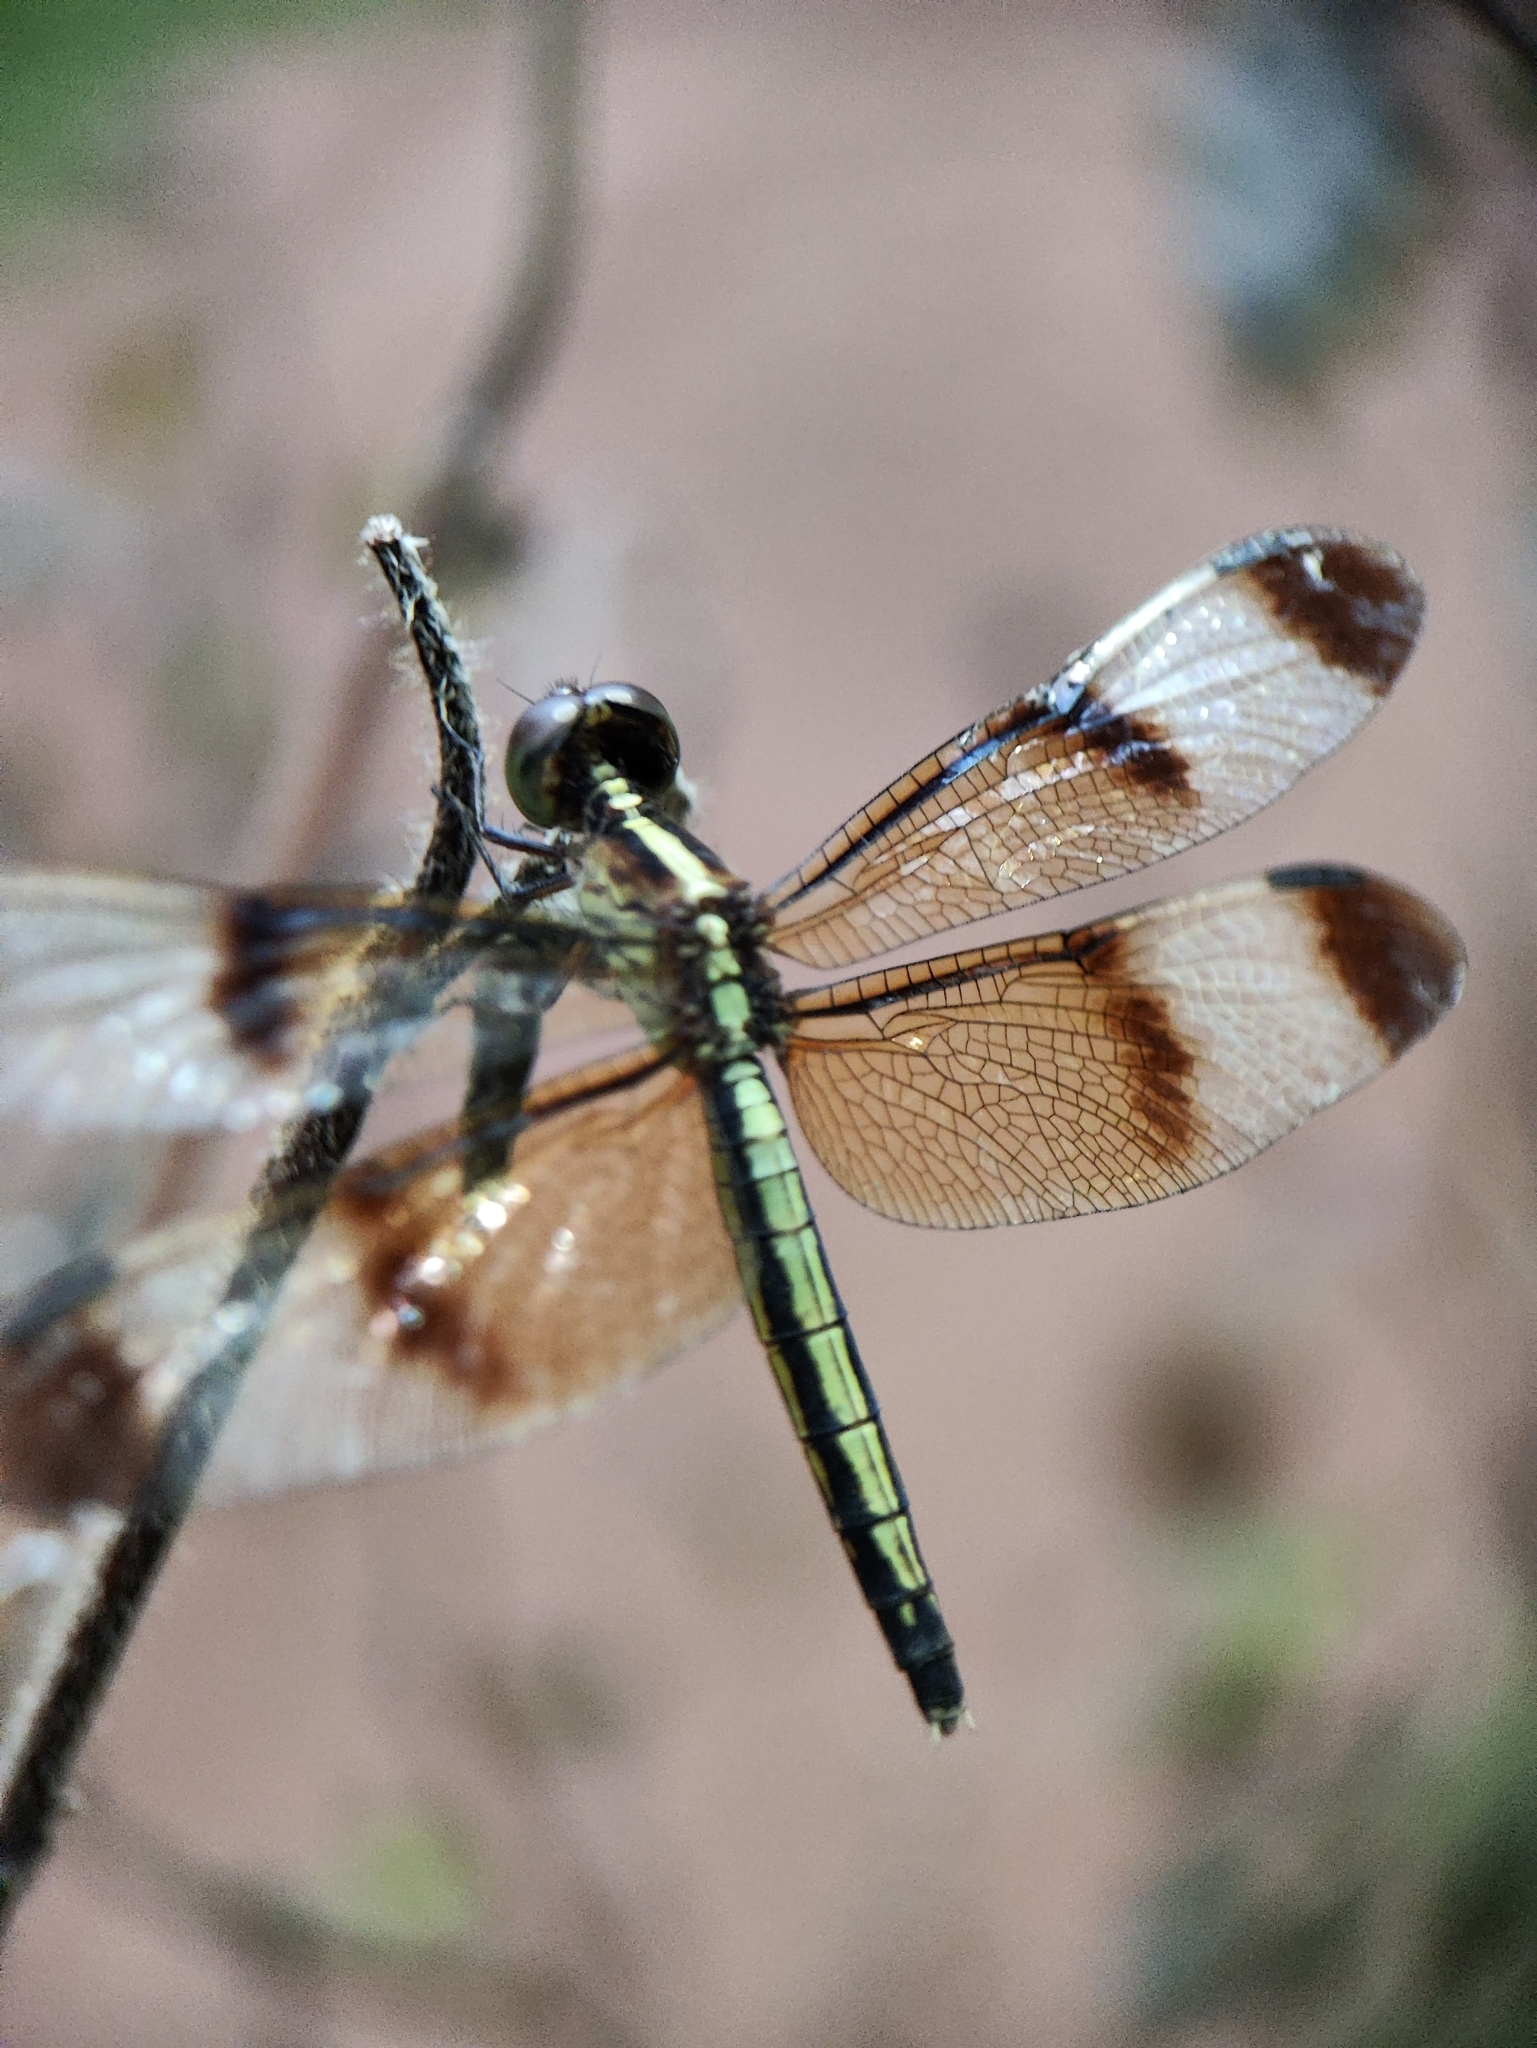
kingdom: Animalia
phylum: Arthropoda
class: Insecta
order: Odonata
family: Libellulidae
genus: Neurothemis
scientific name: Neurothemis tullia
